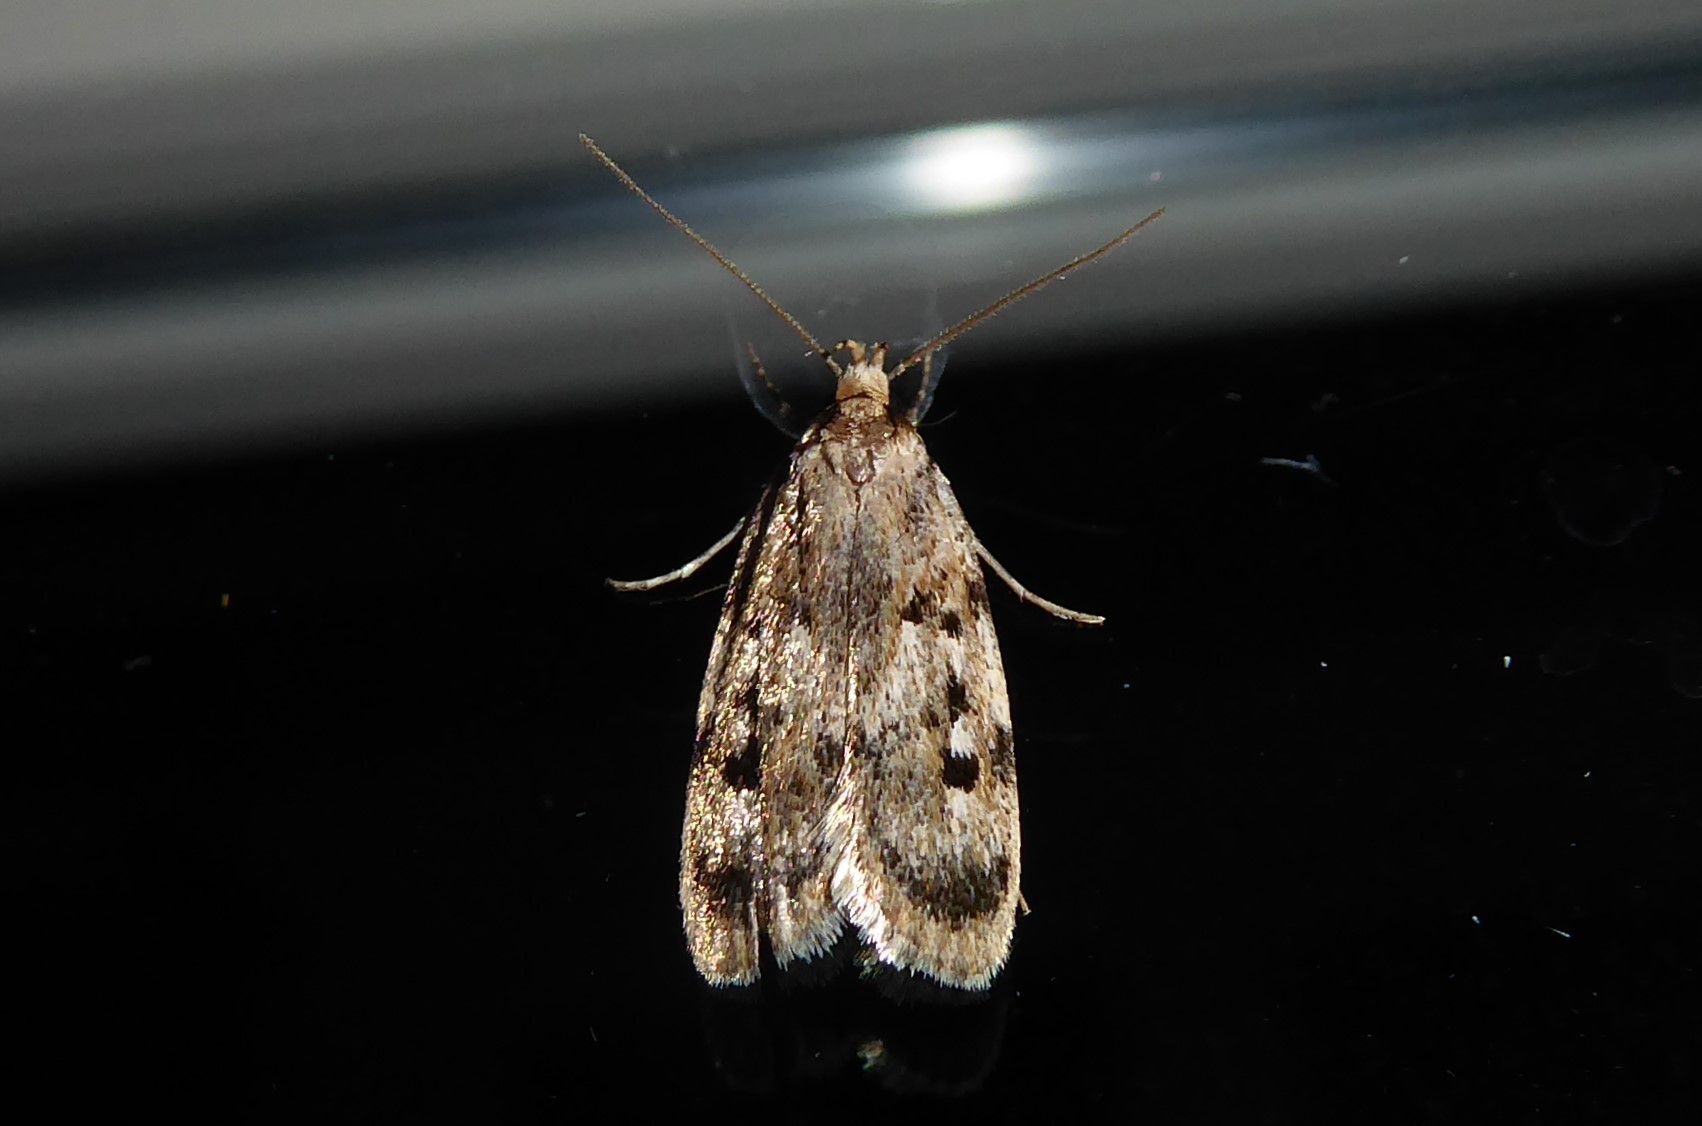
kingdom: Animalia
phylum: Arthropoda
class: Insecta
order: Lepidoptera
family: Oecophoridae
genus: Barea
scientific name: Barea exarcha
